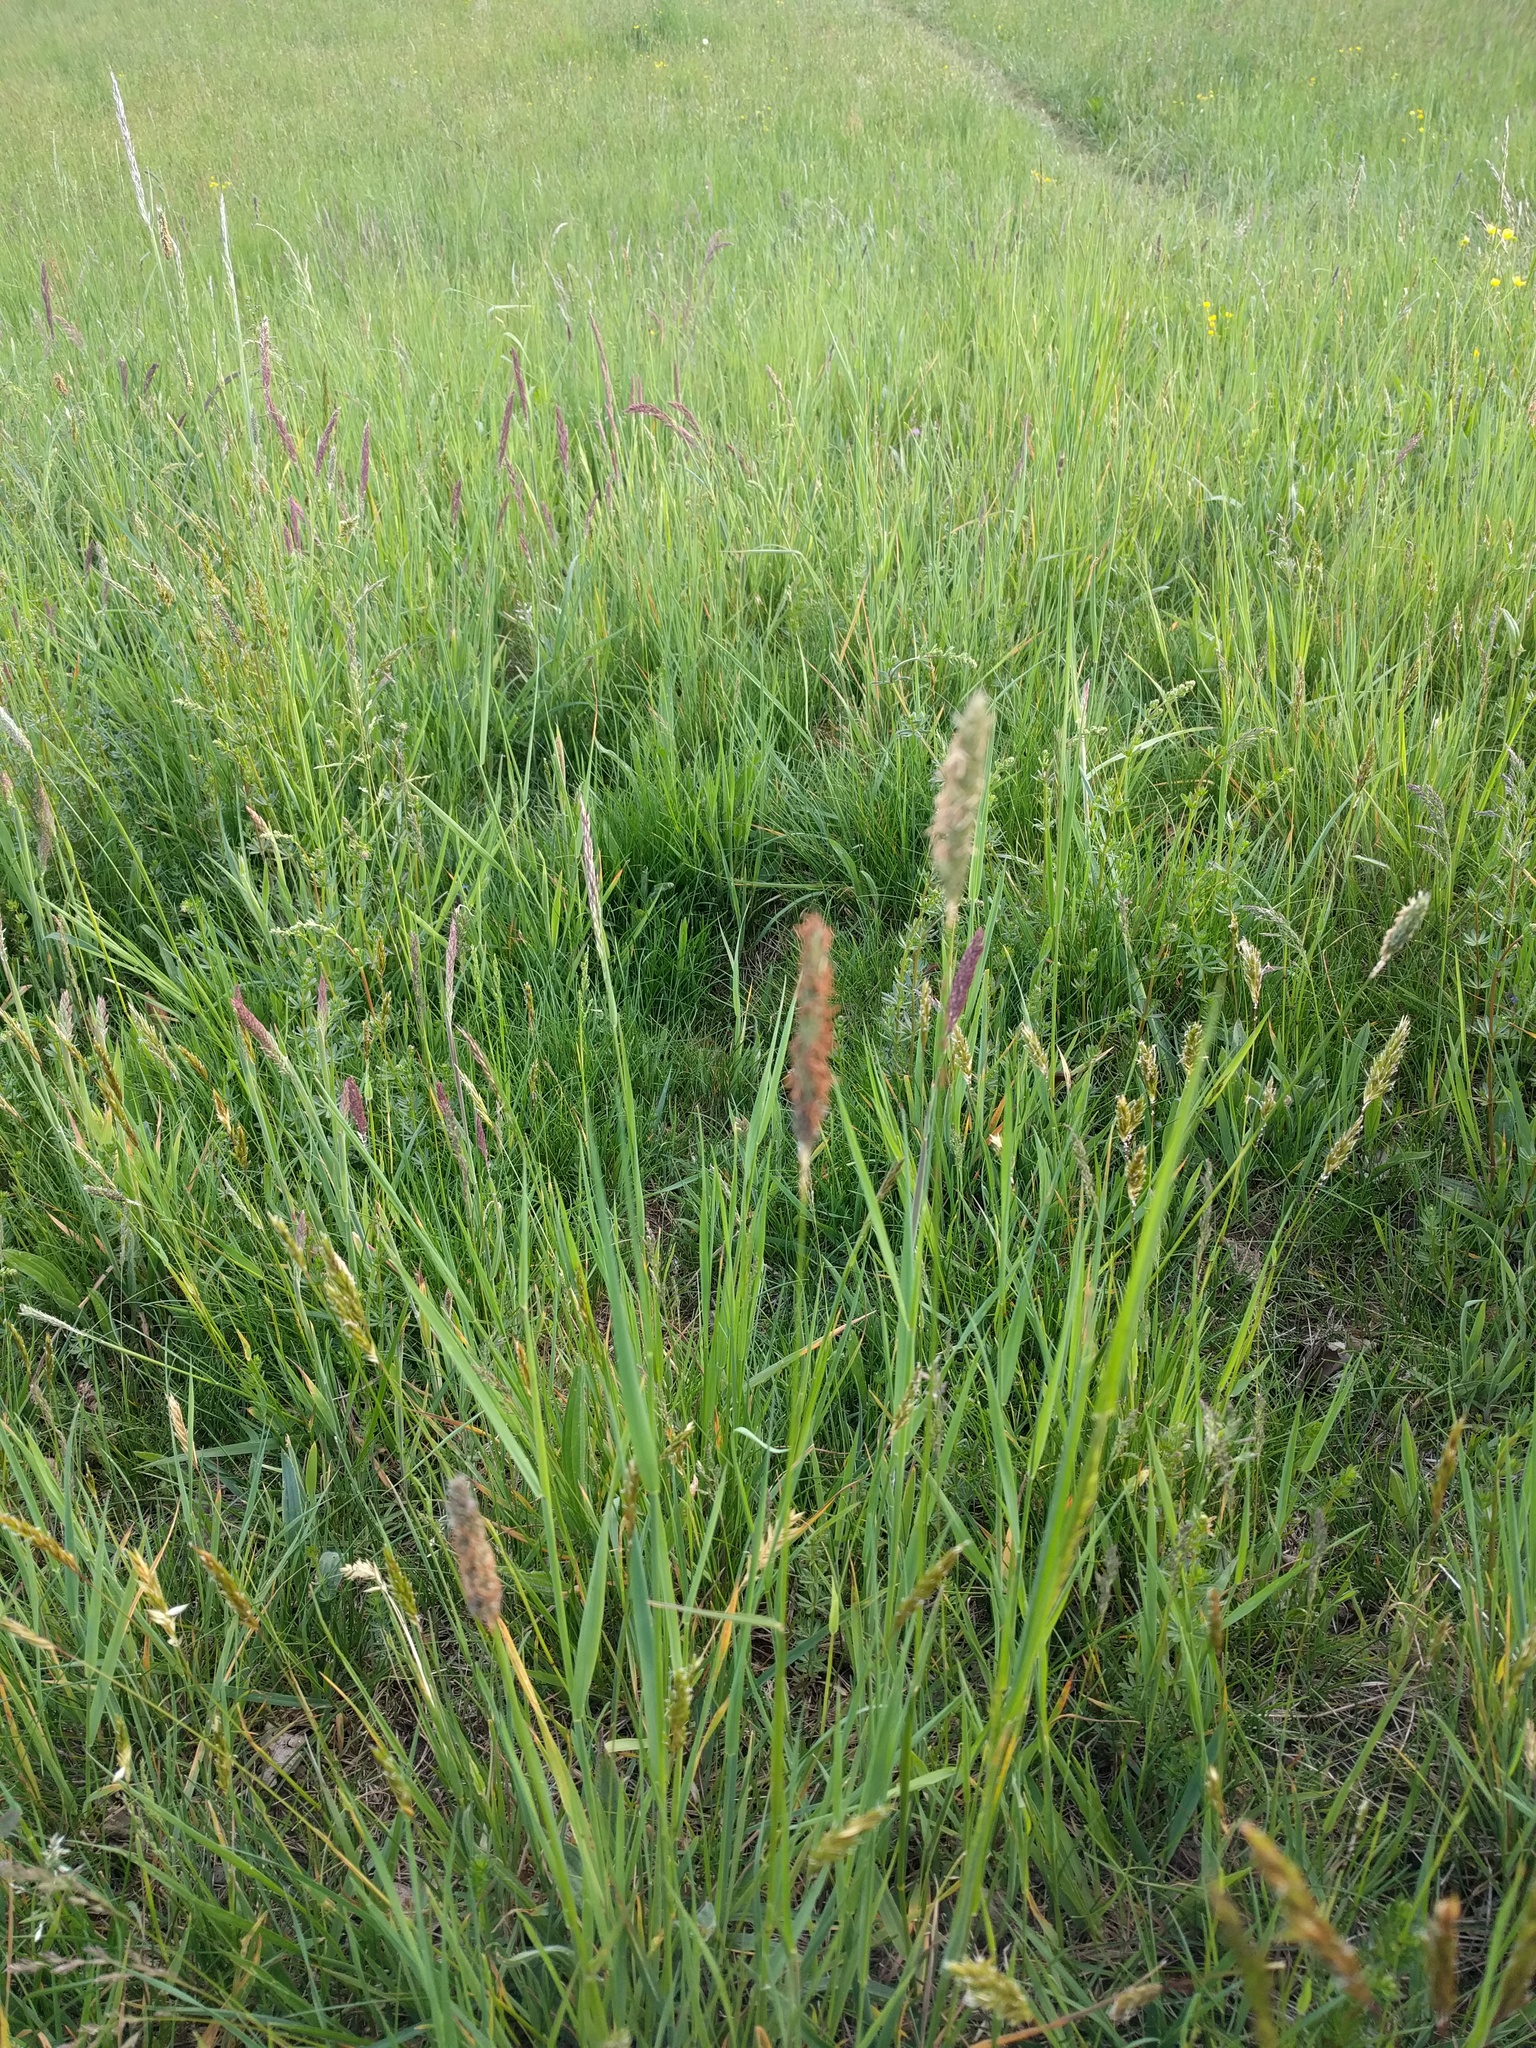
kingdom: Plantae
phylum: Tracheophyta
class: Liliopsida
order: Poales
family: Poaceae
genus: Alopecurus
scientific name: Alopecurus pratensis
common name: Meadow foxtail
